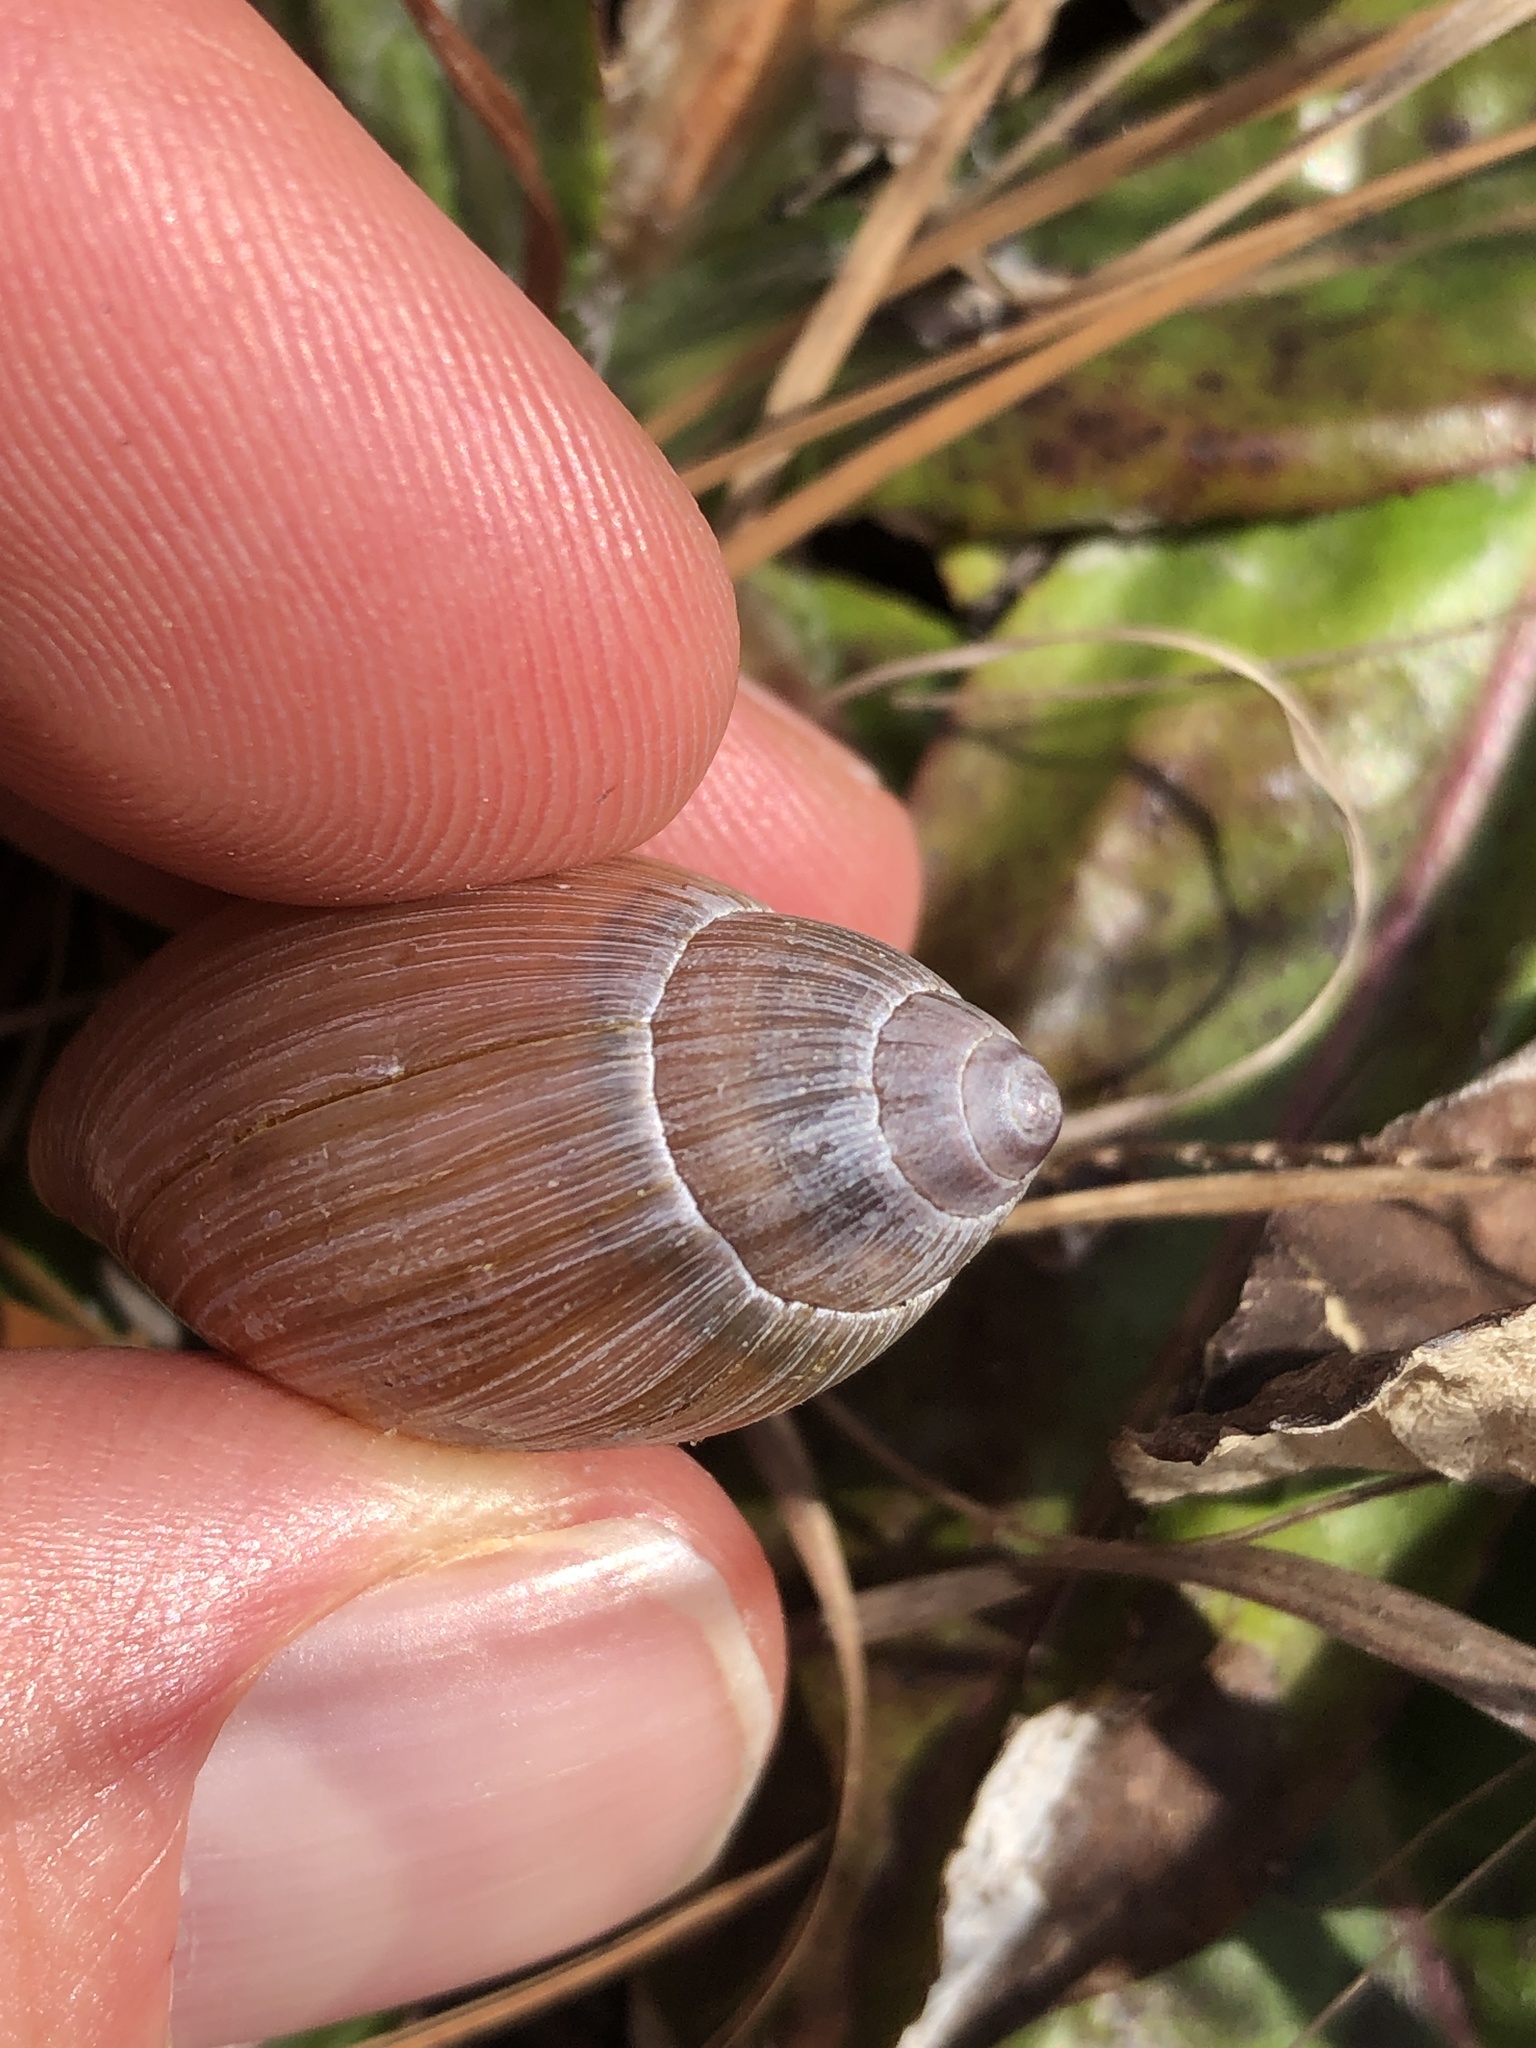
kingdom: Animalia
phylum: Mollusca
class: Gastropoda
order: Stylommatophora
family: Spiraxidae
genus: Euglandina
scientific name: Euglandina rosea
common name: Rosy wolfsnail
